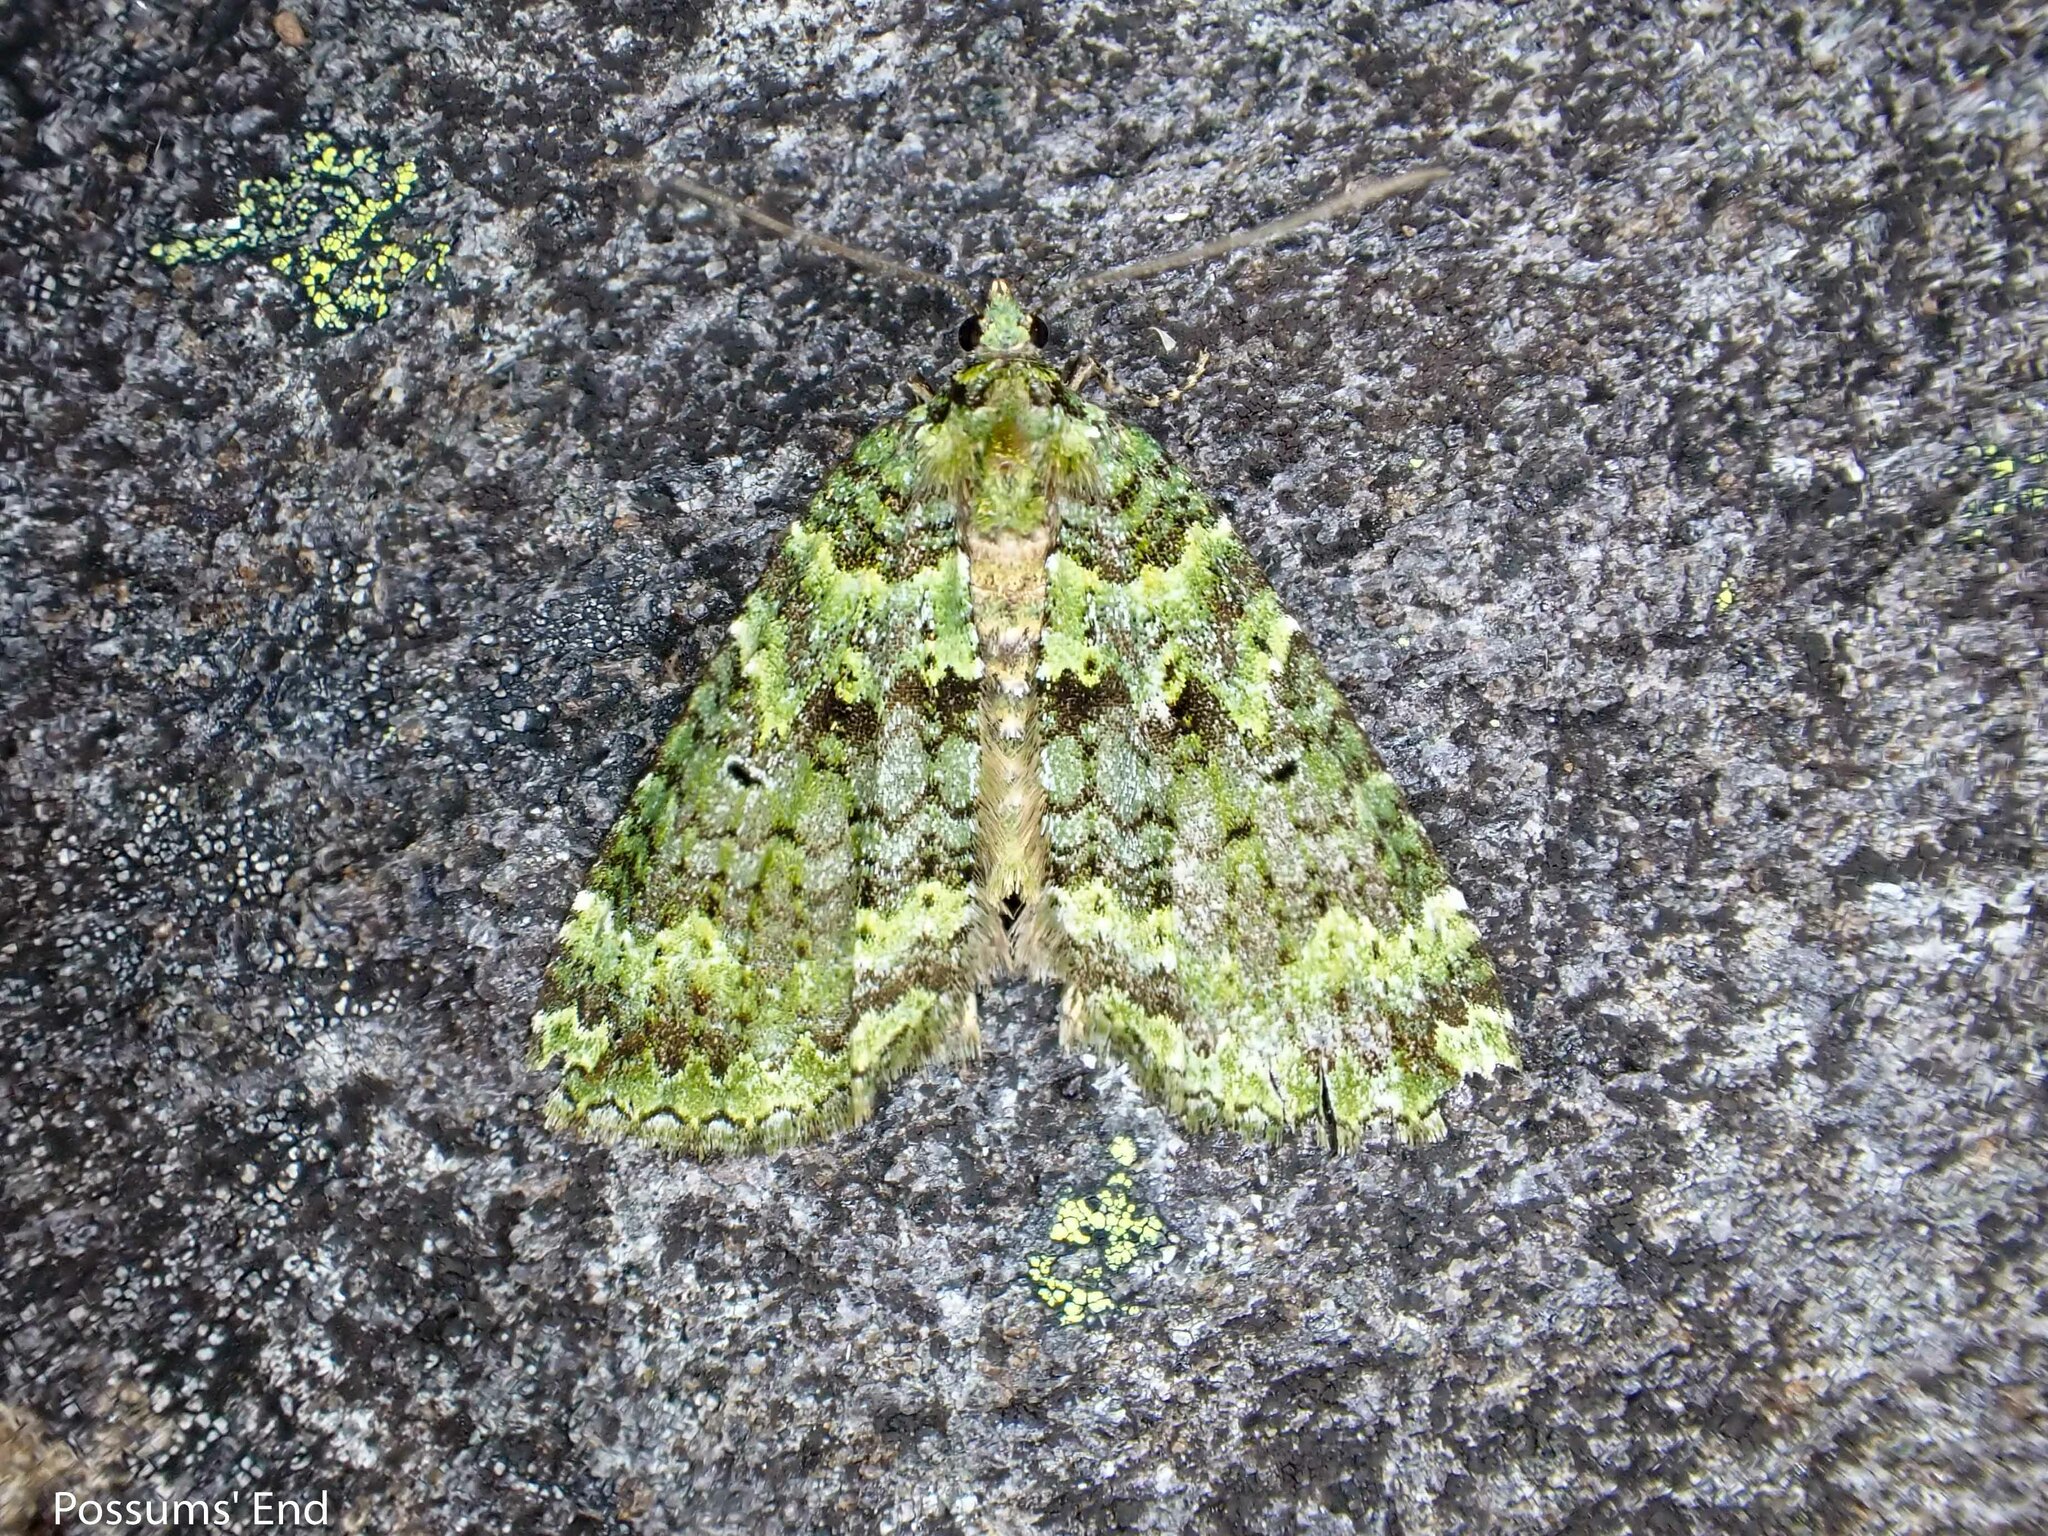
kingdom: Animalia
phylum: Arthropoda
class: Insecta
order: Lepidoptera
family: Geometridae
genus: Austrocidaria
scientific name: Austrocidaria callichlora
